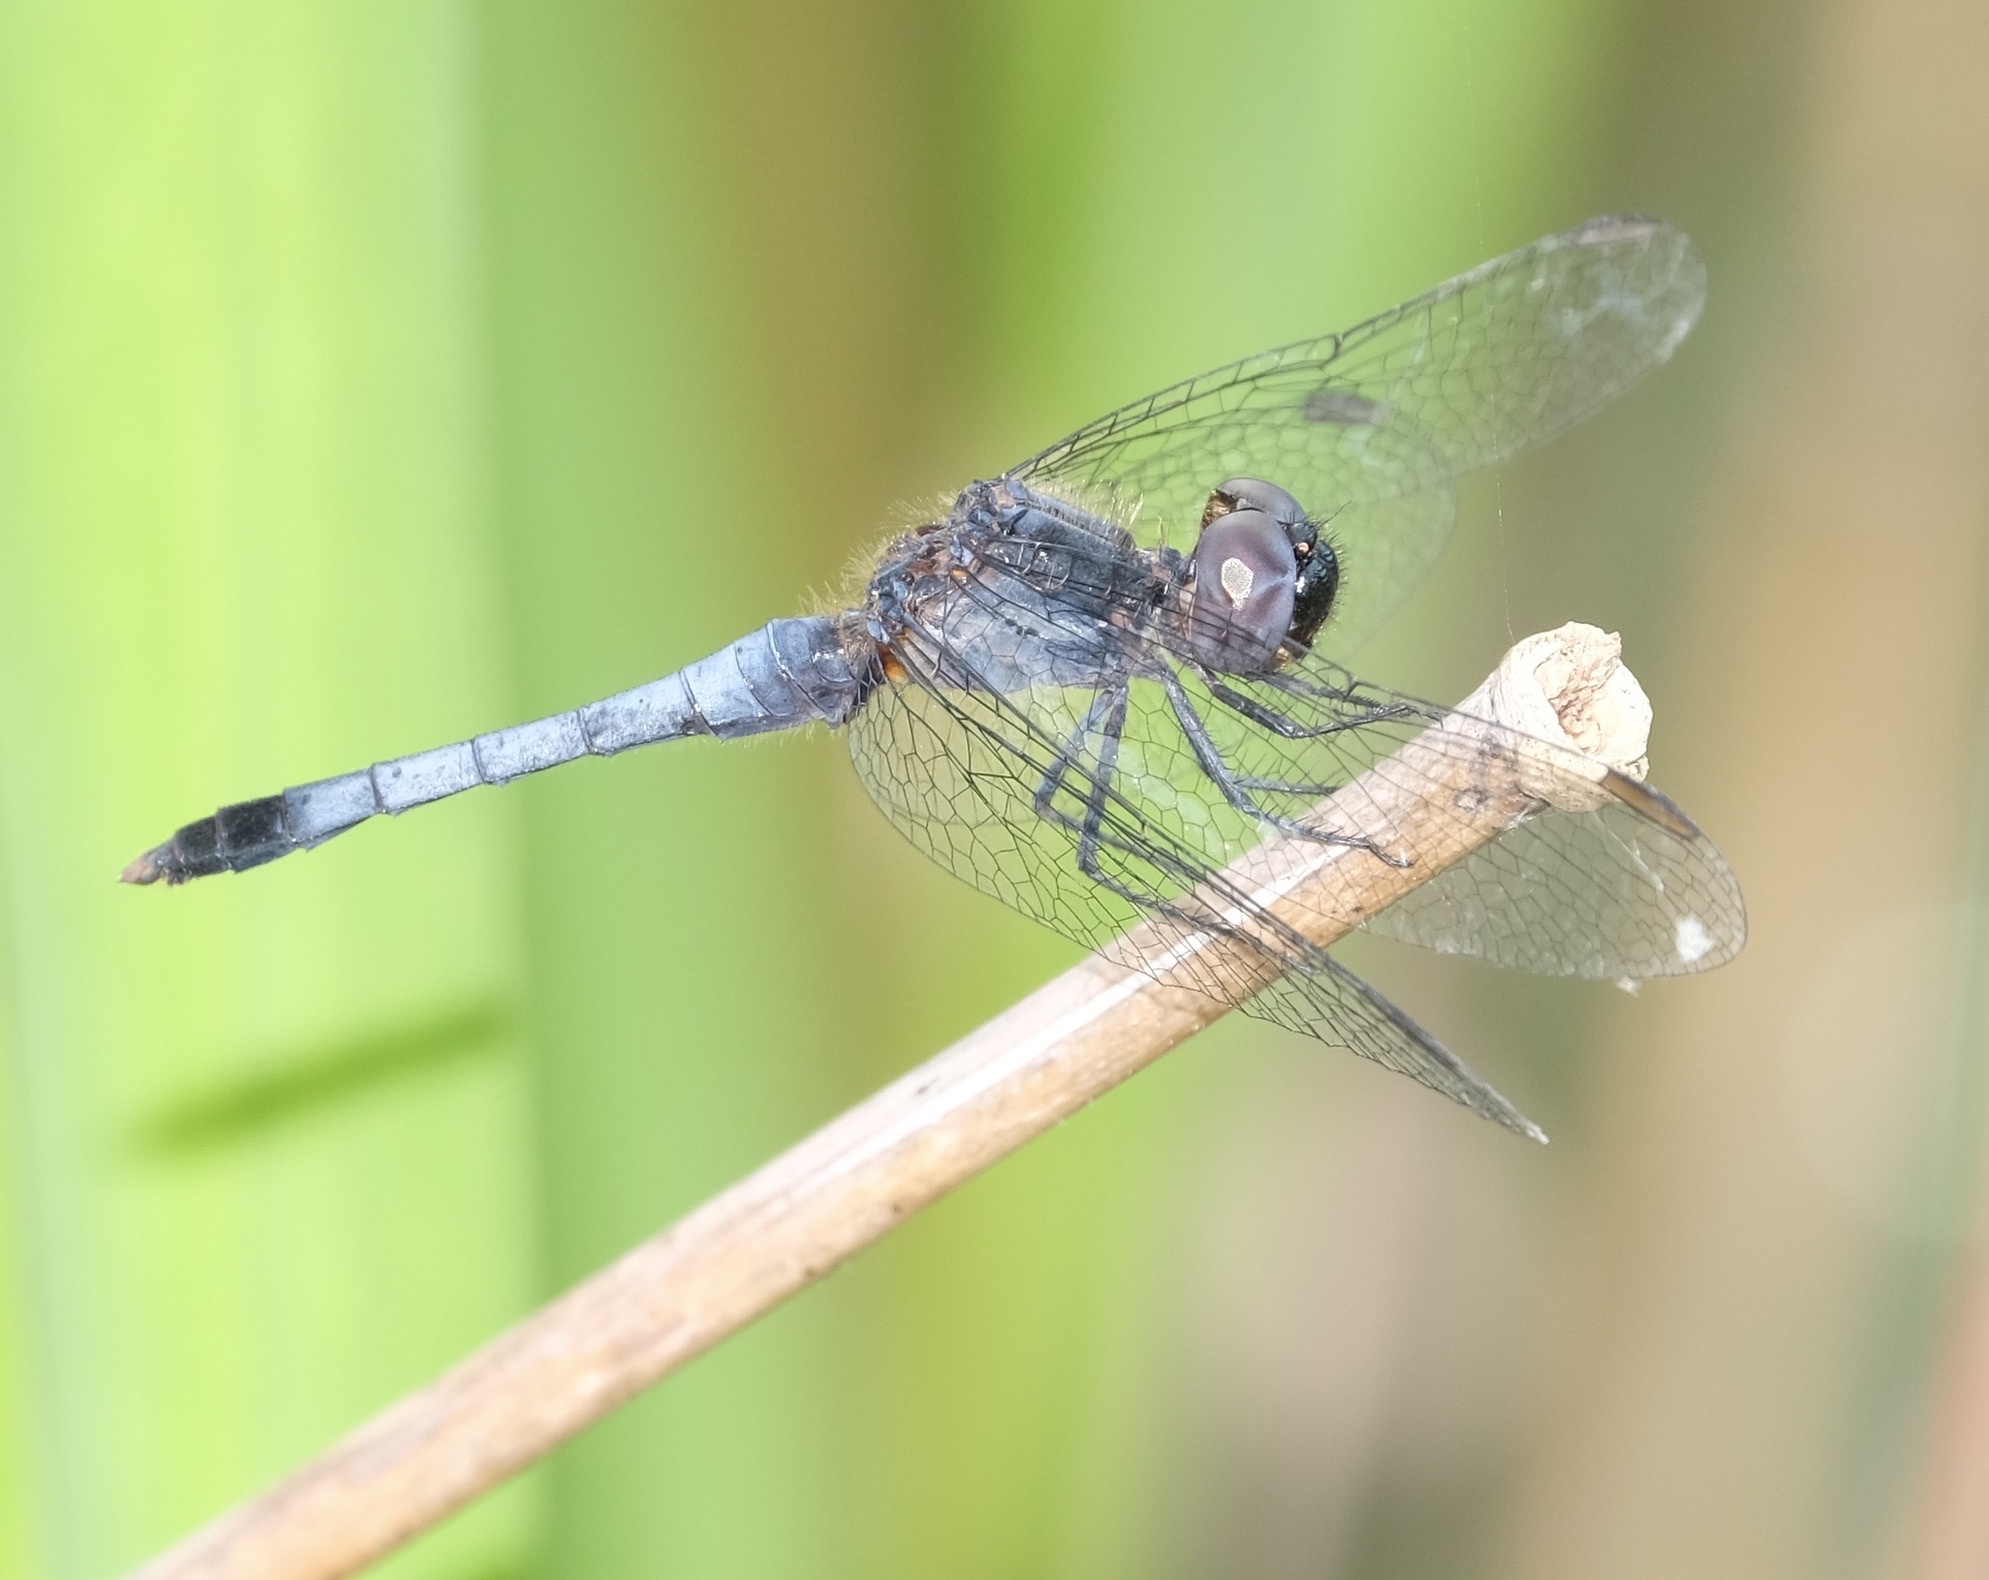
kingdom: Animalia
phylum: Arthropoda
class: Insecta
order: Odonata
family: Libellulidae
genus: Erythrodiplax
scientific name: Erythrodiplax minuscula
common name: Little blue dragonlet
